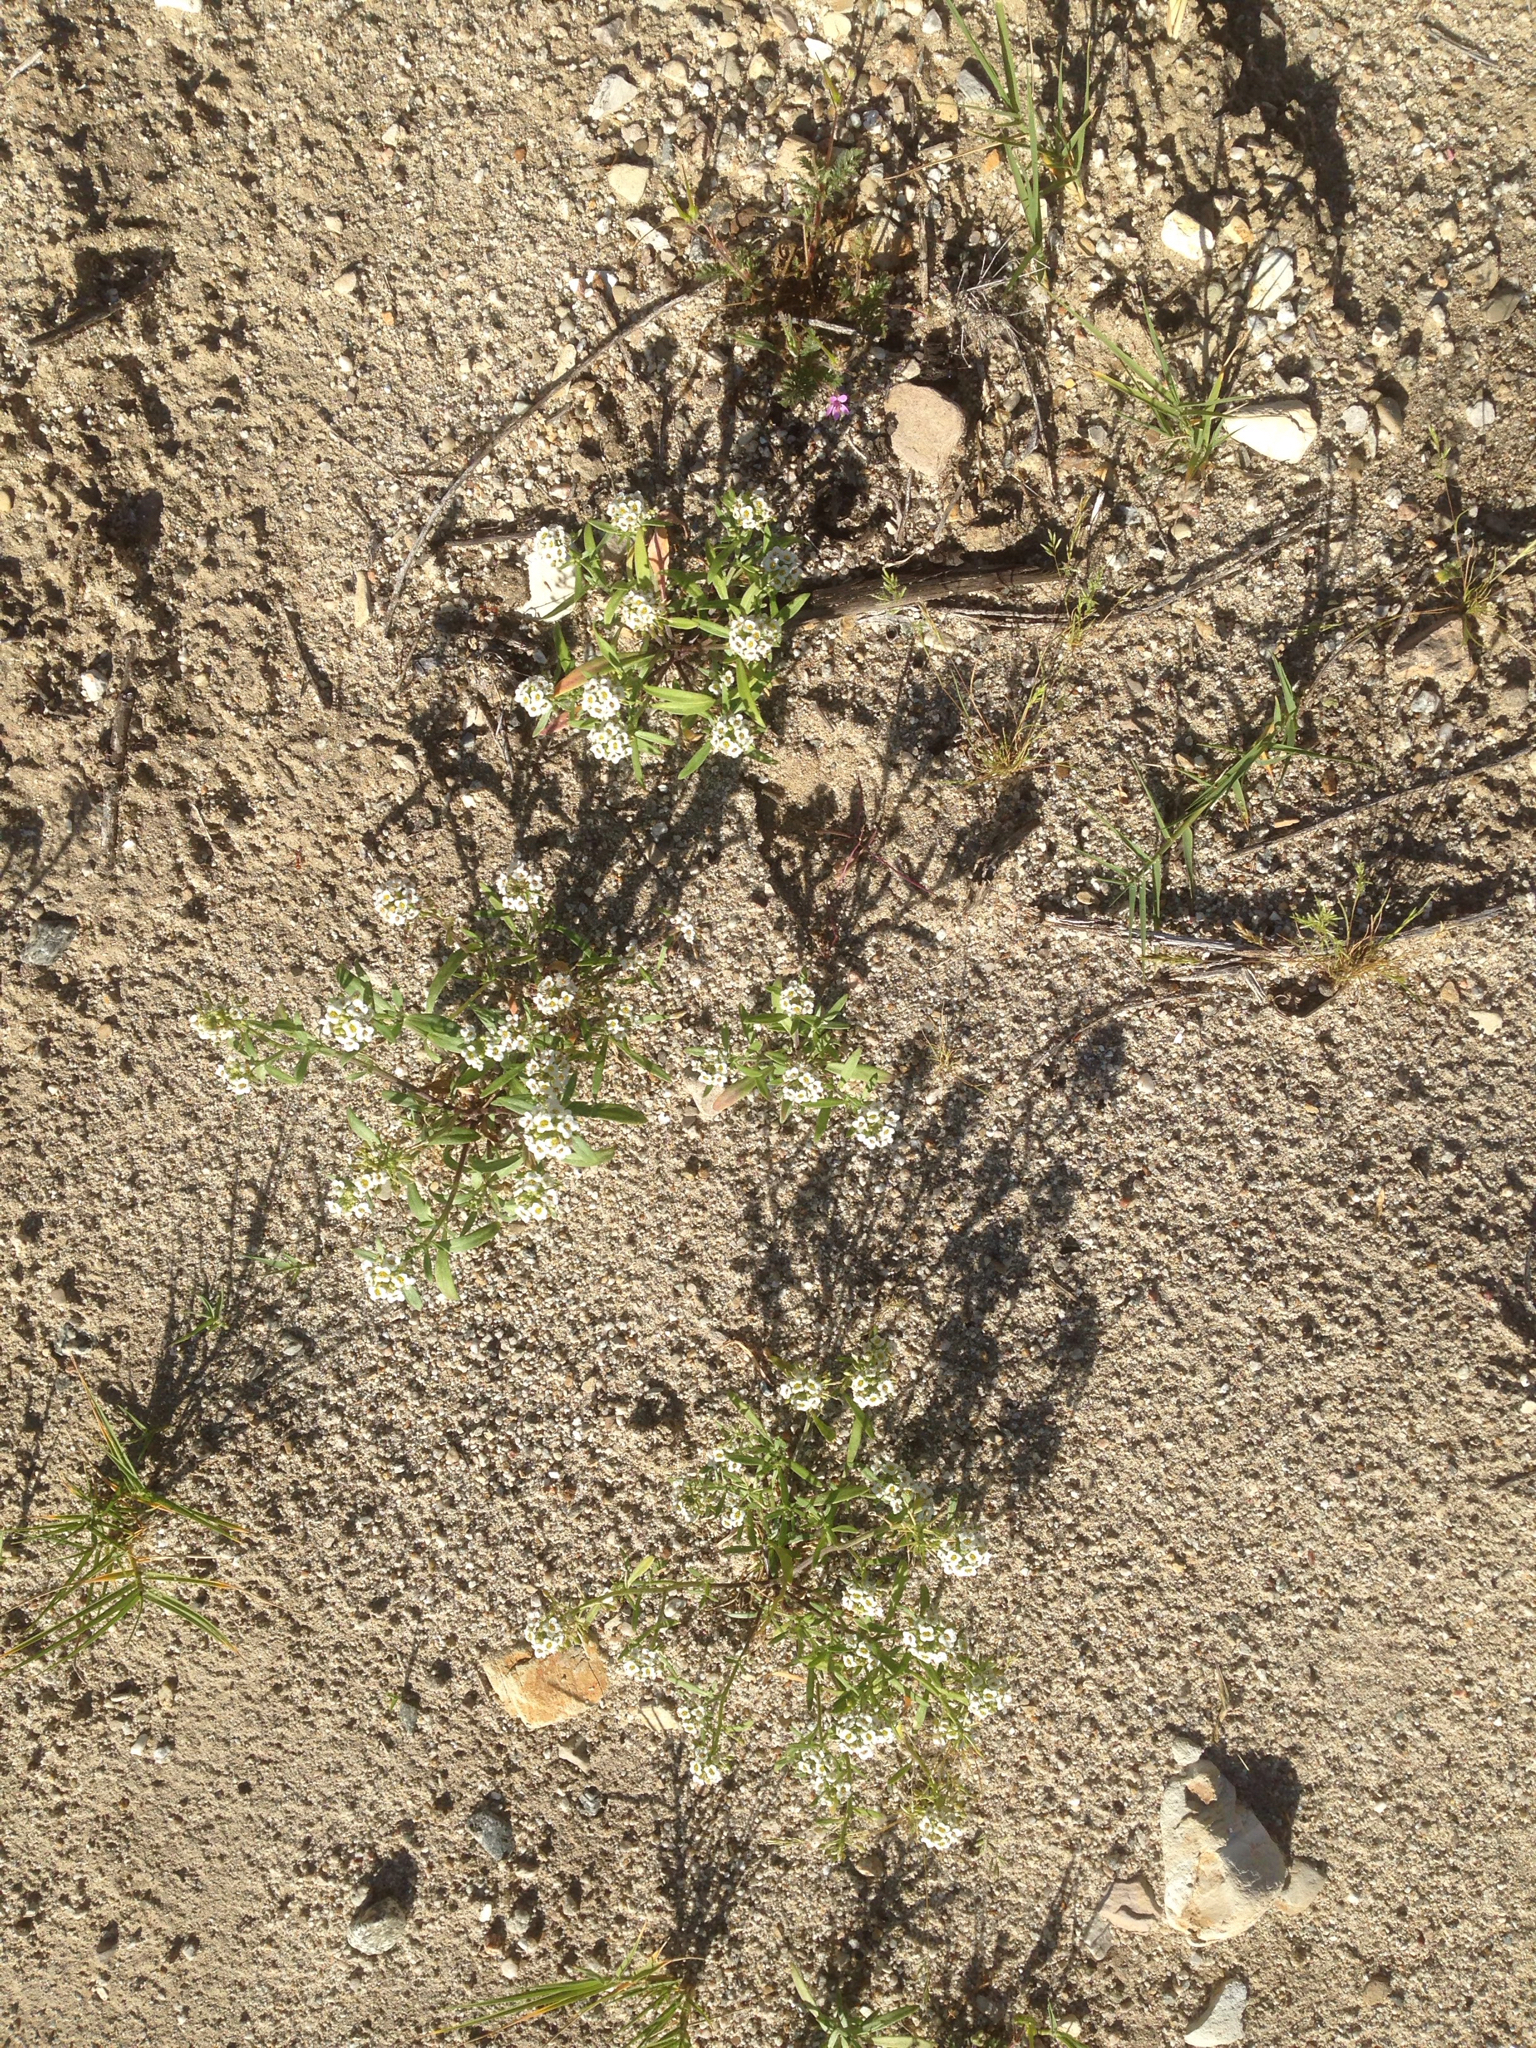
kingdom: Plantae
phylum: Tracheophyta
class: Magnoliopsida
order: Brassicales
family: Brassicaceae
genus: Lobularia
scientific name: Lobularia maritima
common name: Sweet alison
